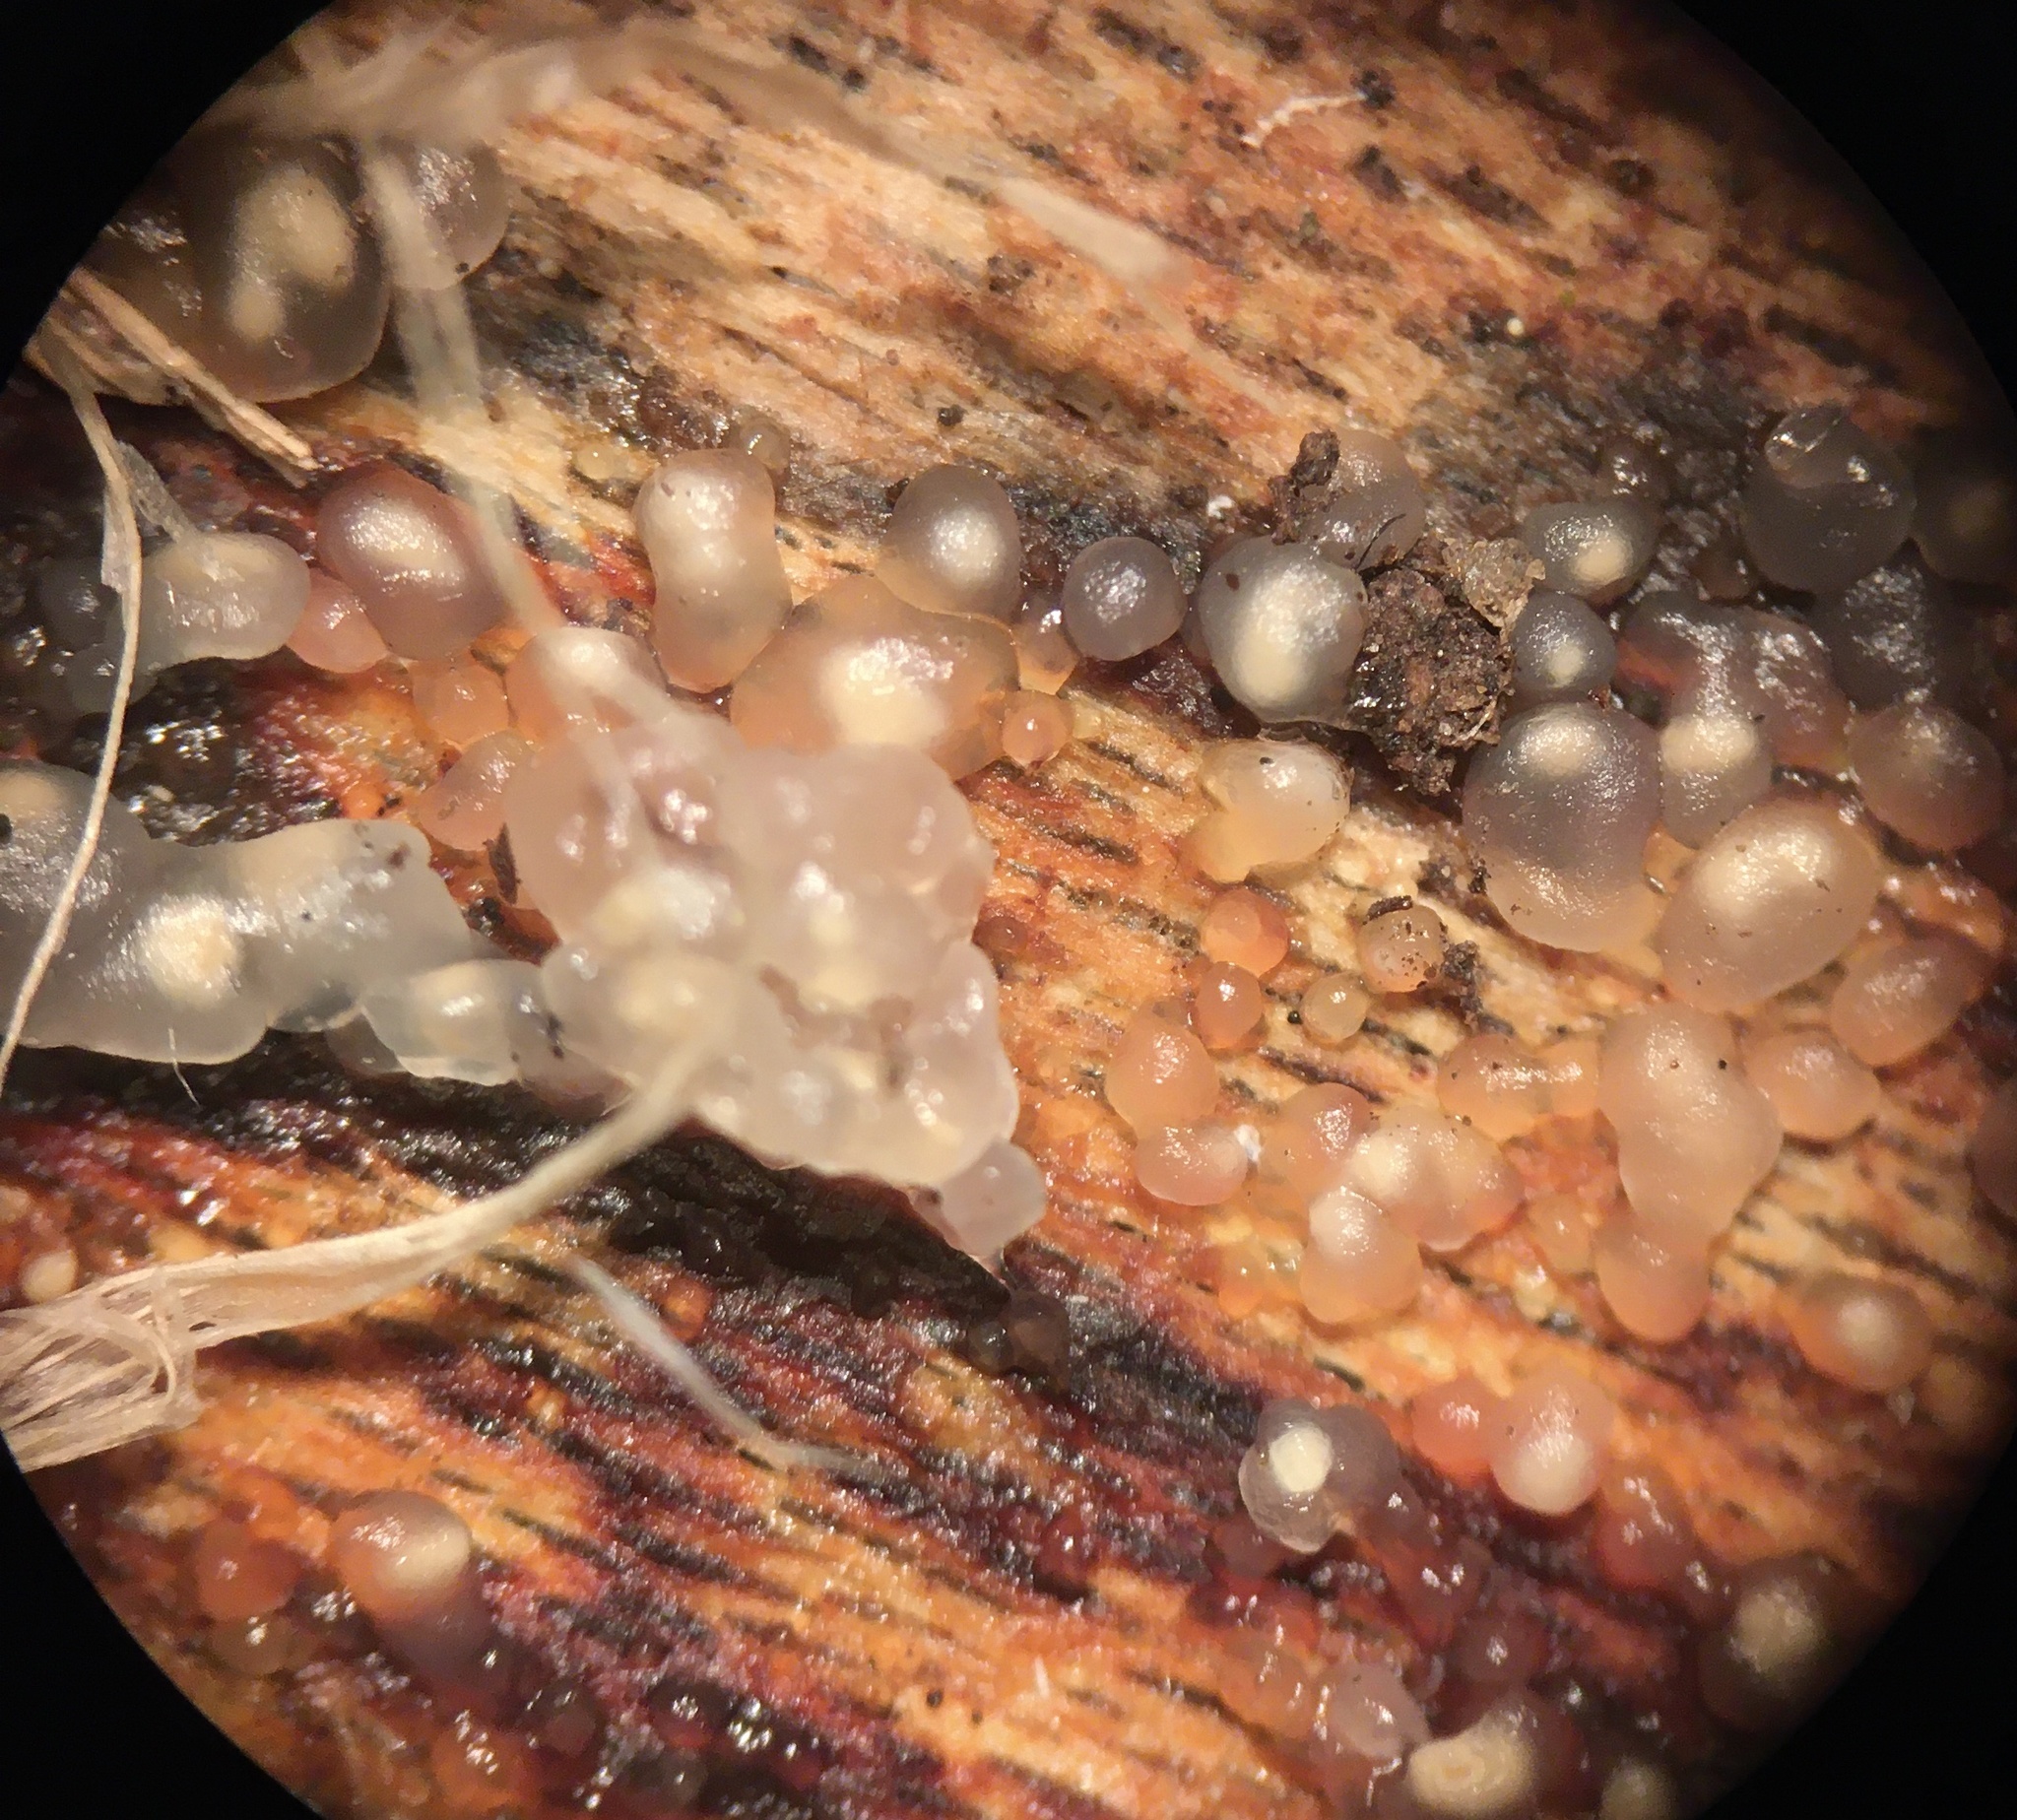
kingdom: Fungi
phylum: Basidiomycota
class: Agaricomycetes
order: Auriculariales
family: Hyaloriaceae
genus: Myxarium
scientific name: Myxarium nucleatum
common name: Crystal brain fungus
